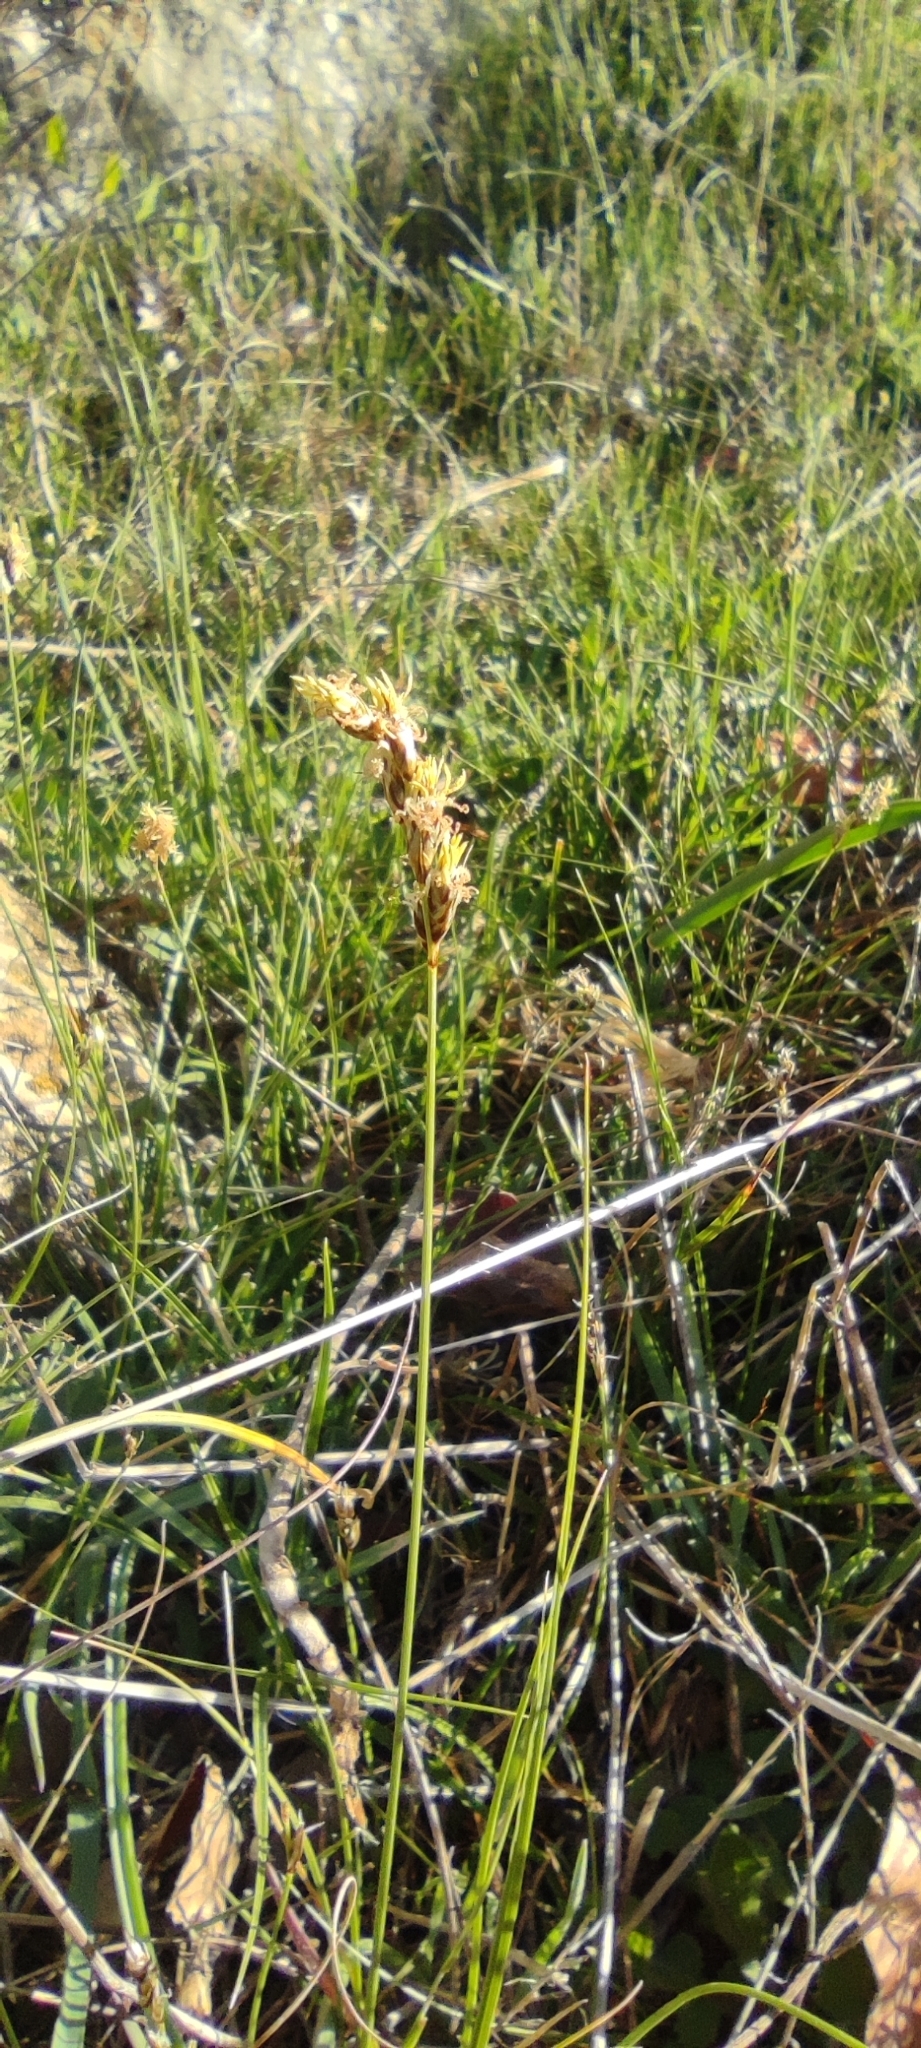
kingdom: Plantae
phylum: Tracheophyta
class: Liliopsida
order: Poales
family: Cyperaceae
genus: Carex
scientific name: Carex divisa
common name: Divided sedge
